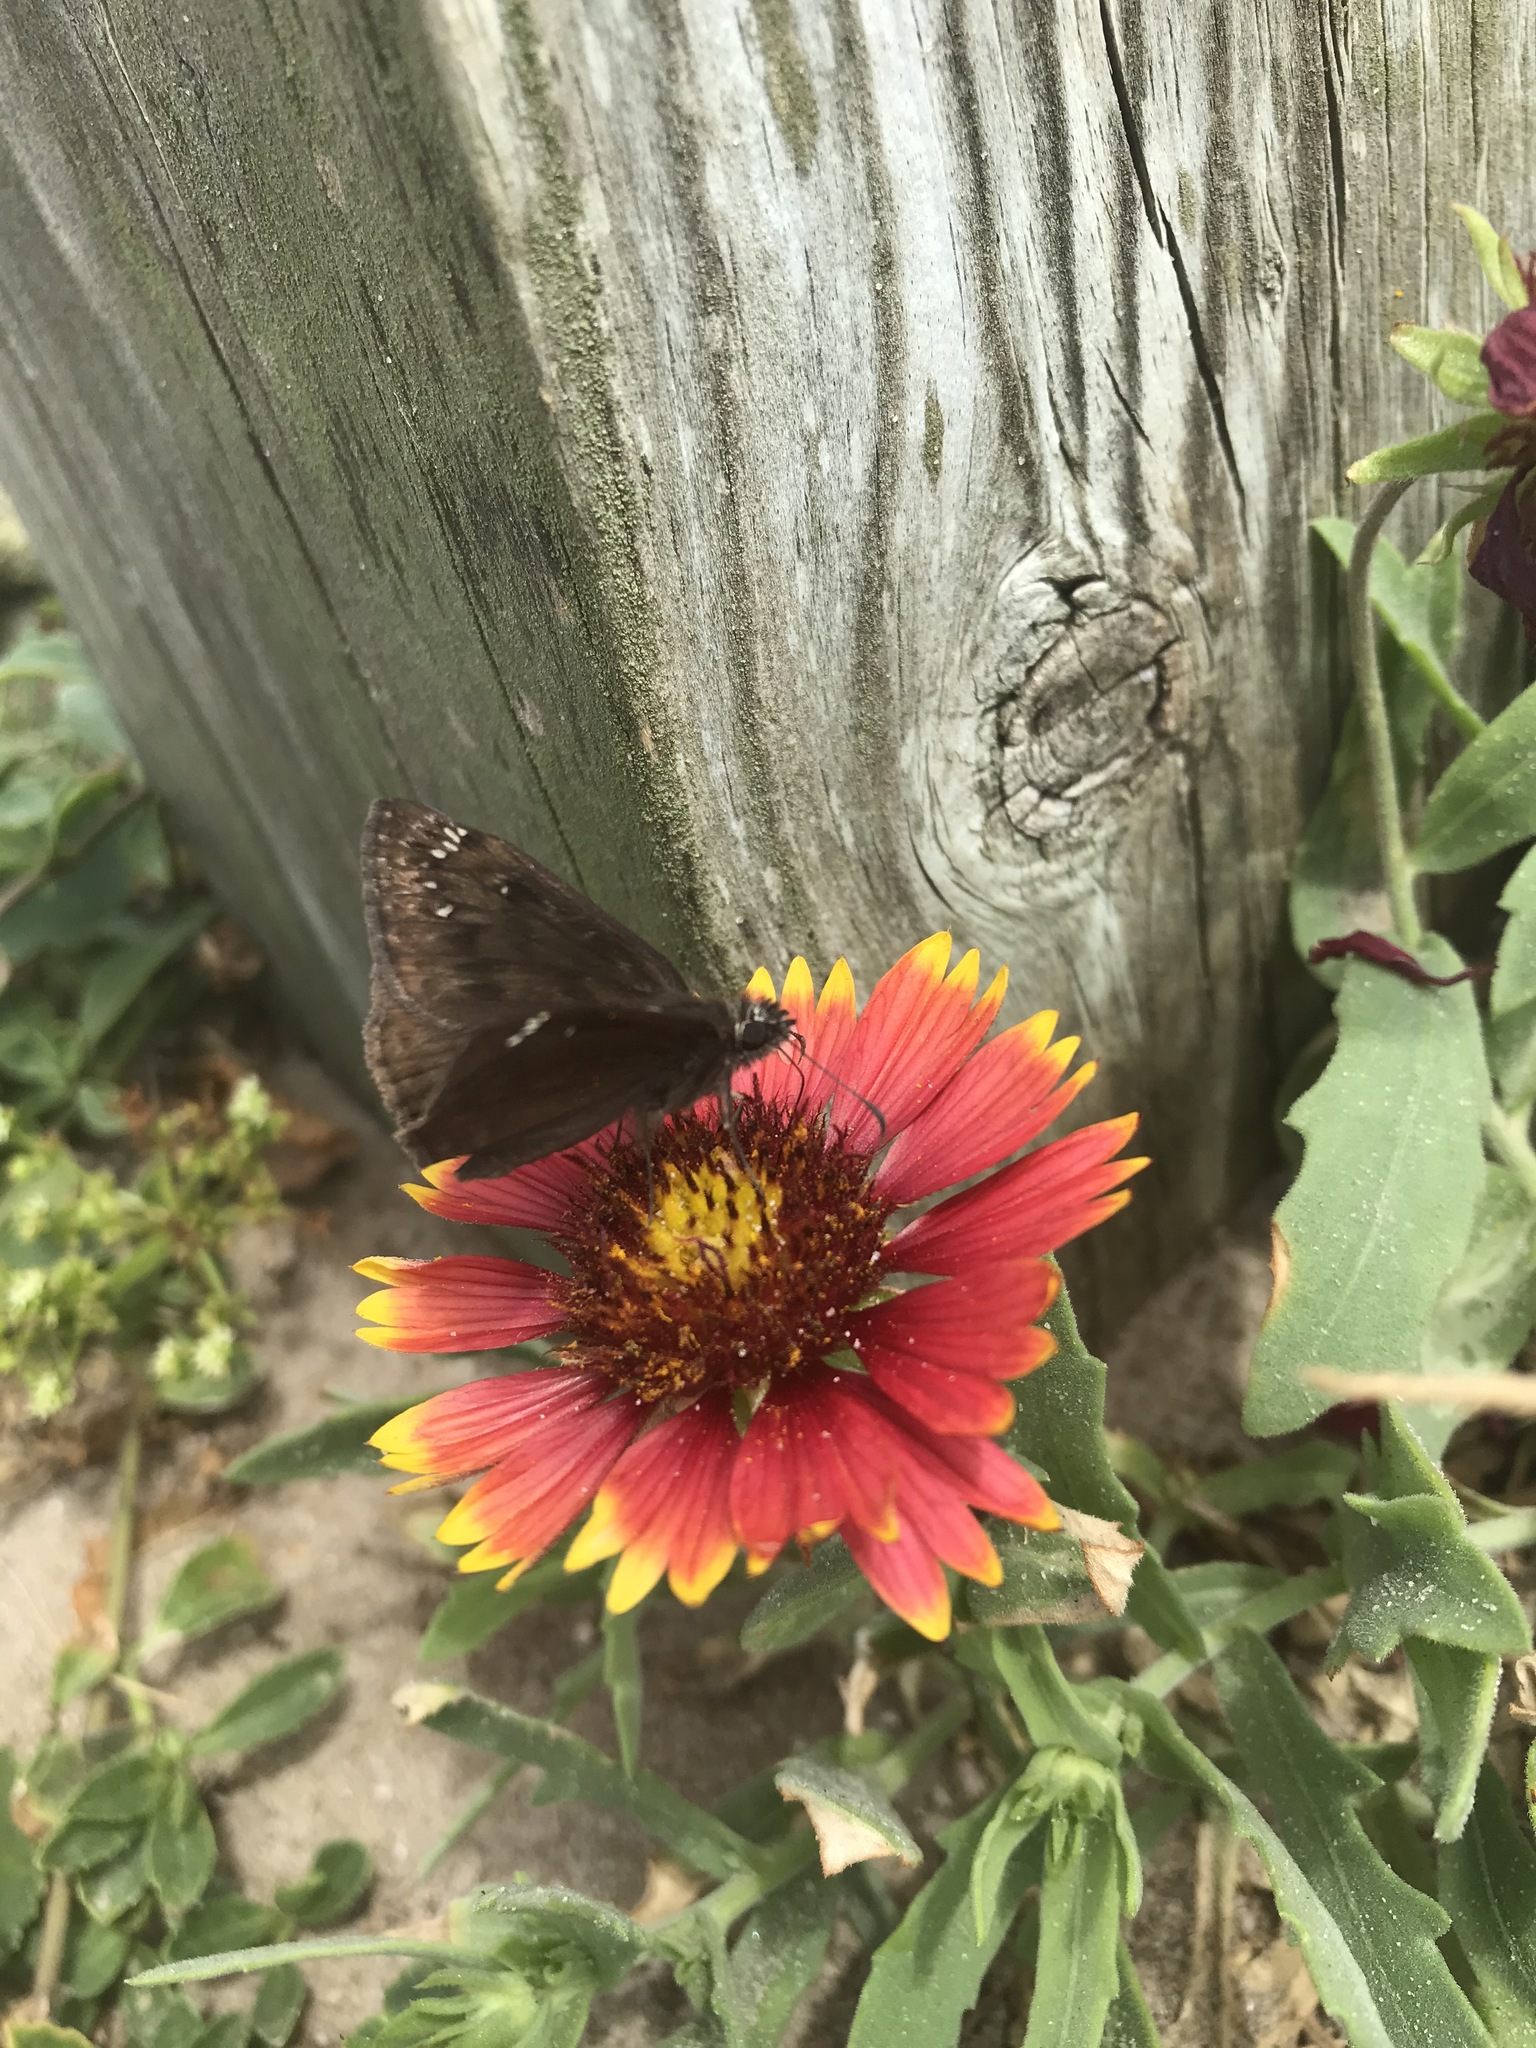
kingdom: Animalia
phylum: Arthropoda
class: Insecta
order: Lepidoptera
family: Hesperiidae
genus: Erynnis
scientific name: Erynnis horatius
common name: Horace's duskywing
